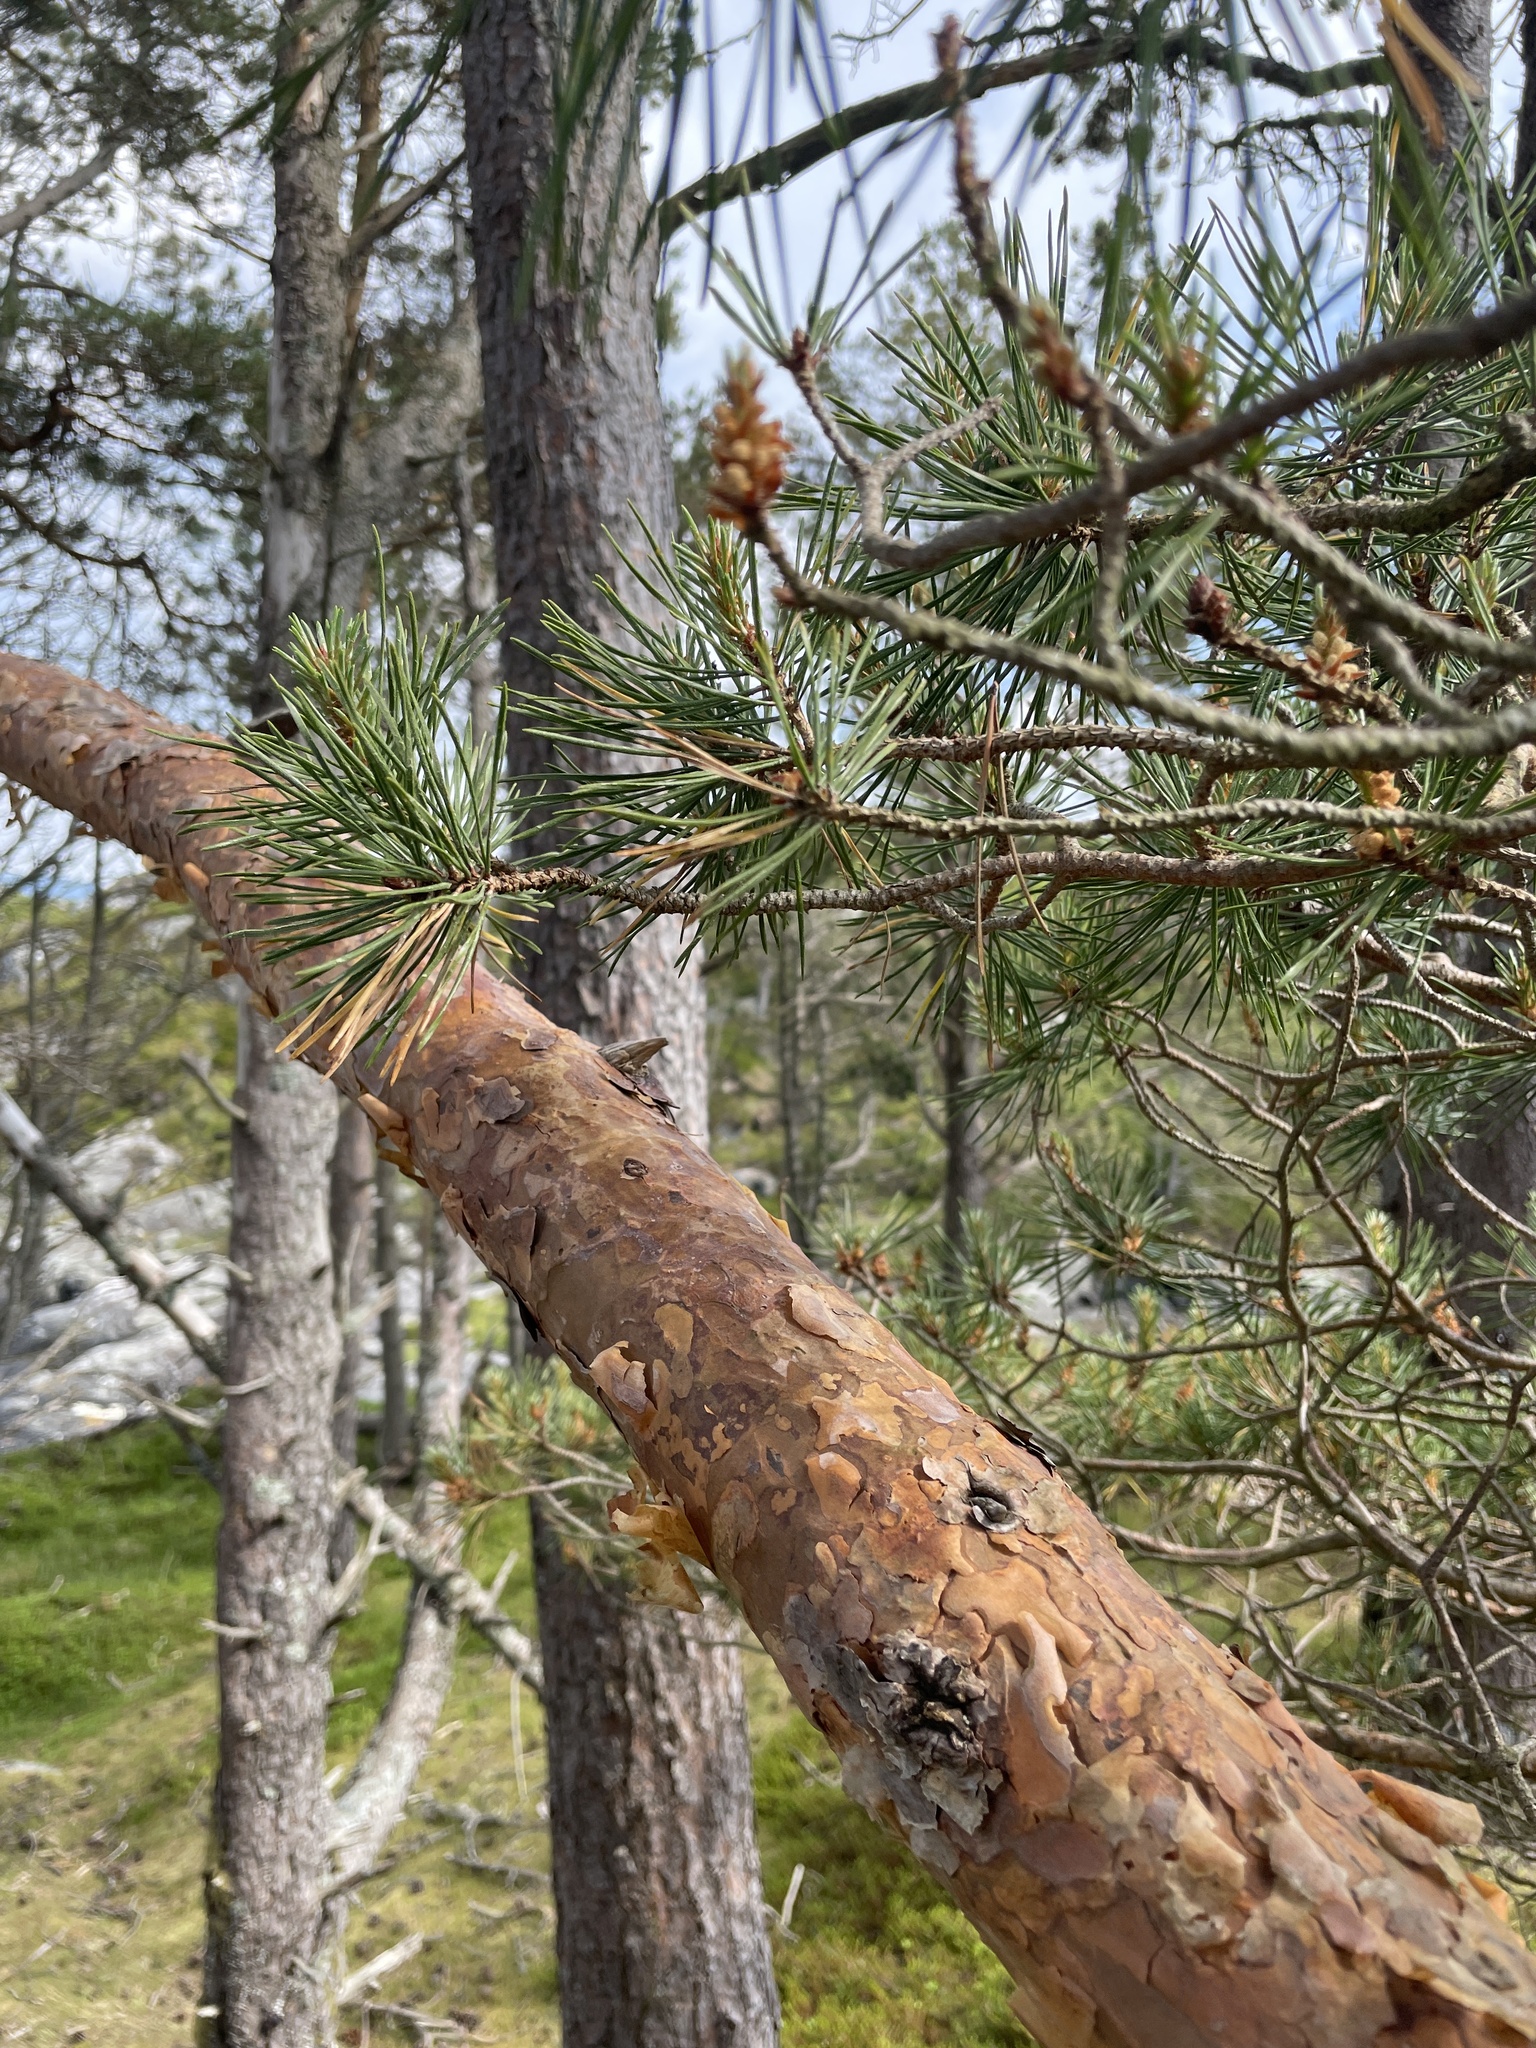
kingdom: Plantae
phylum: Tracheophyta
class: Pinopsida
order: Pinales
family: Pinaceae
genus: Pinus
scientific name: Pinus sylvestris
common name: Scots pine
